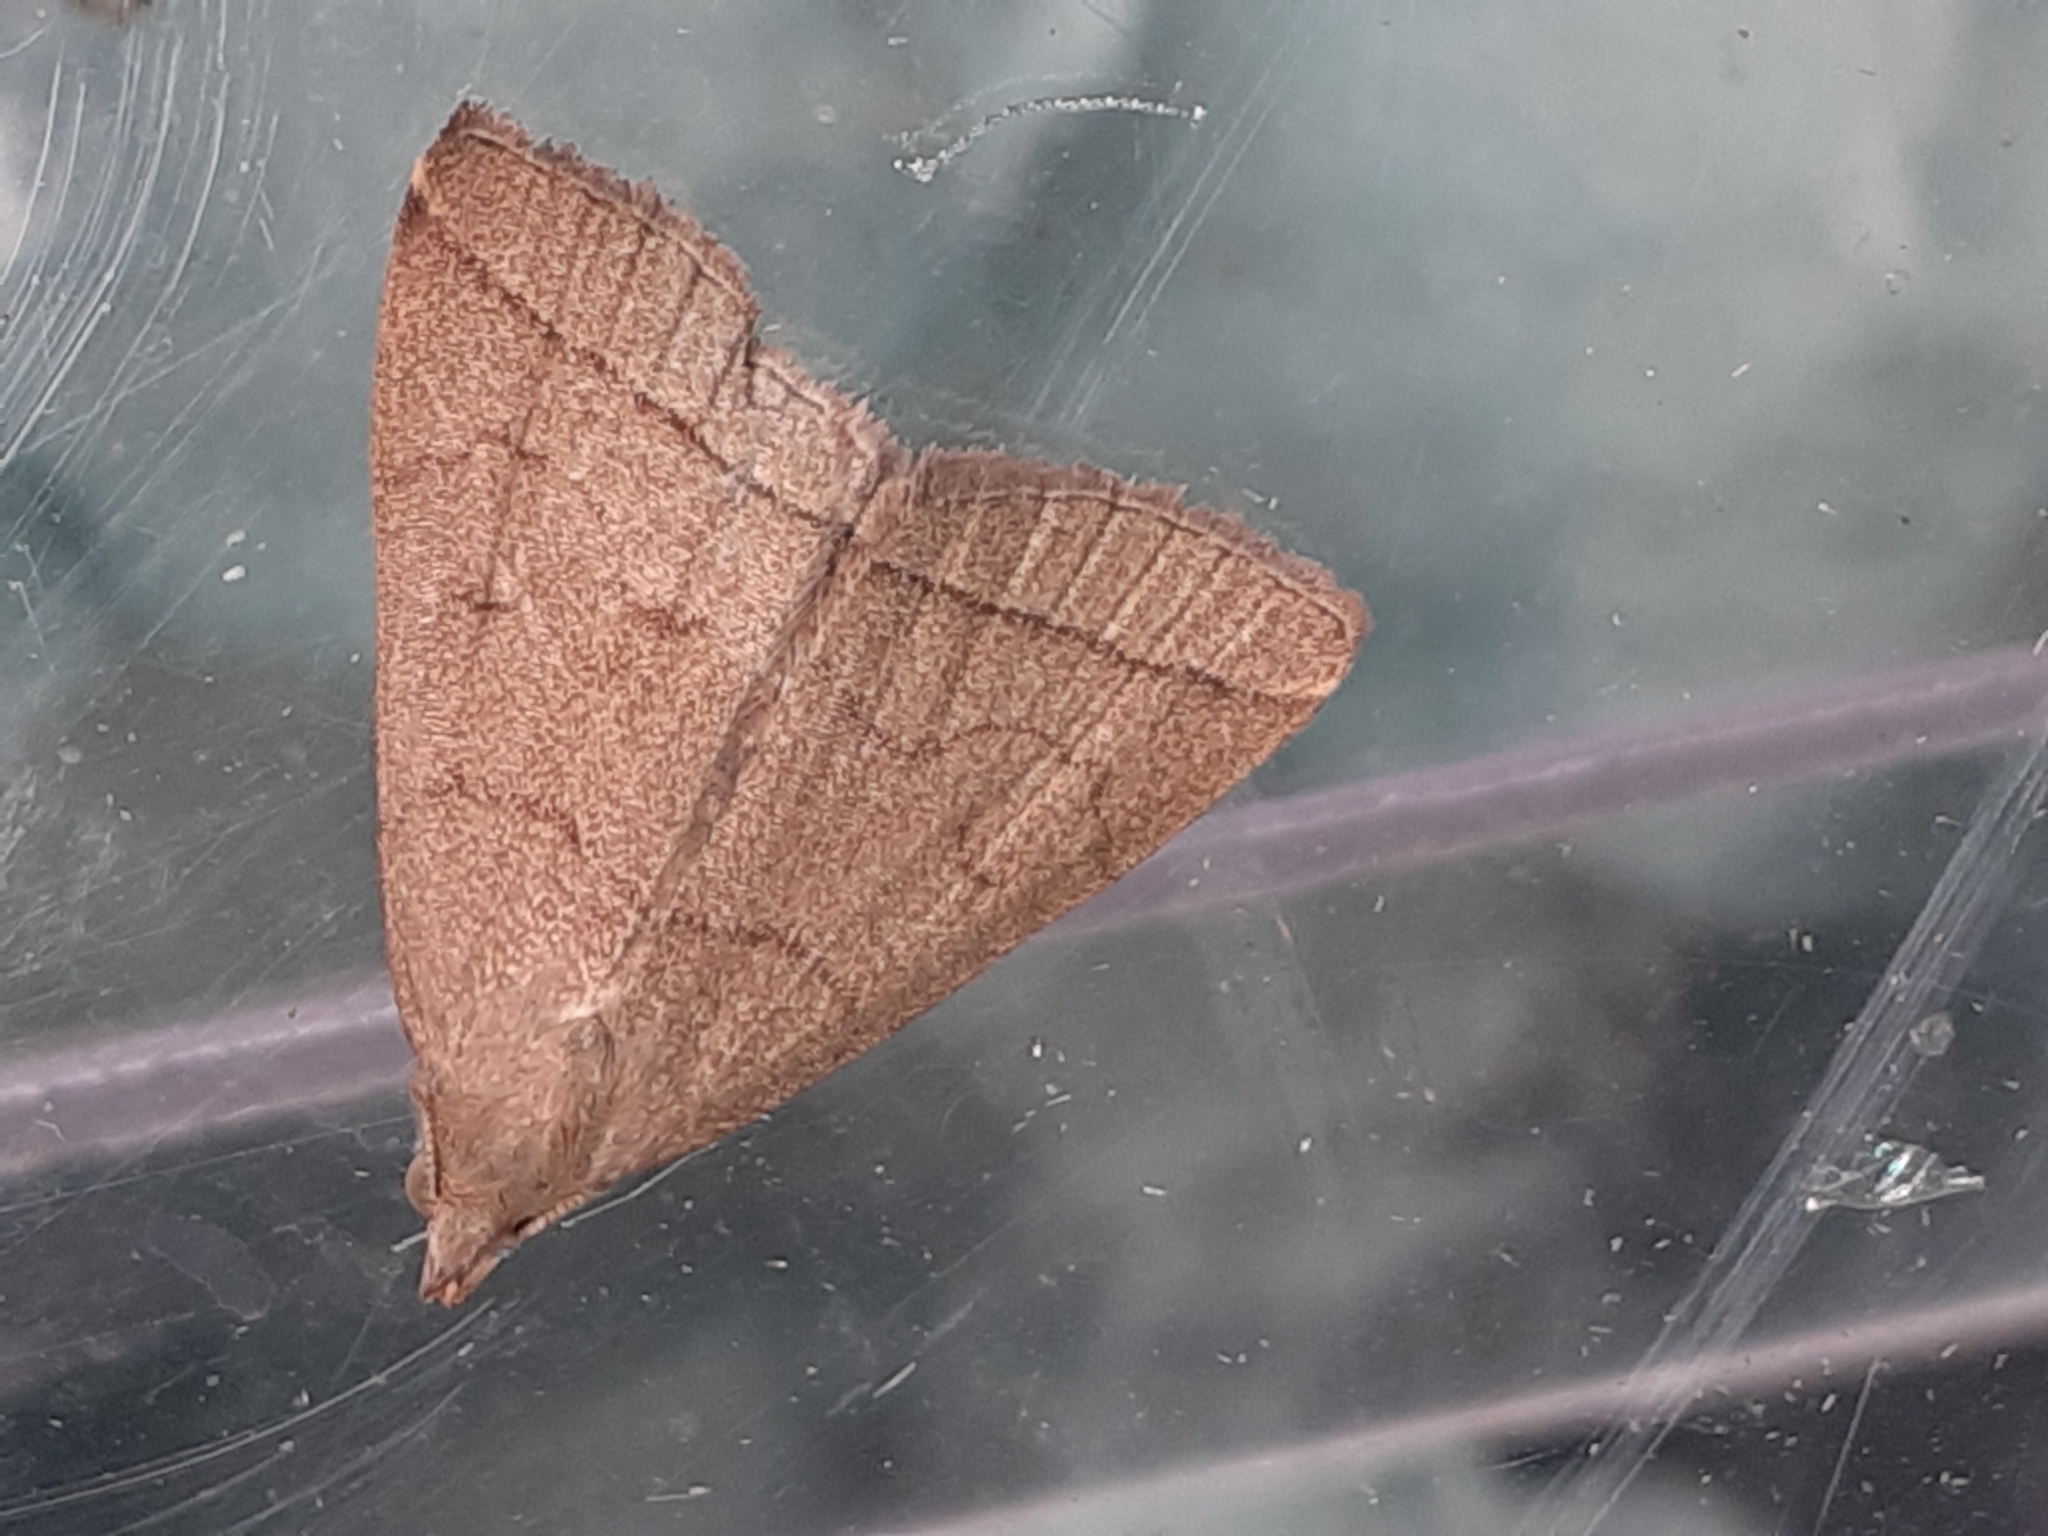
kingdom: Animalia
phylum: Arthropoda
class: Insecta
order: Lepidoptera
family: Erebidae
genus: Herminia
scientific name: Herminia tarsipennalis
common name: Fan-foot
